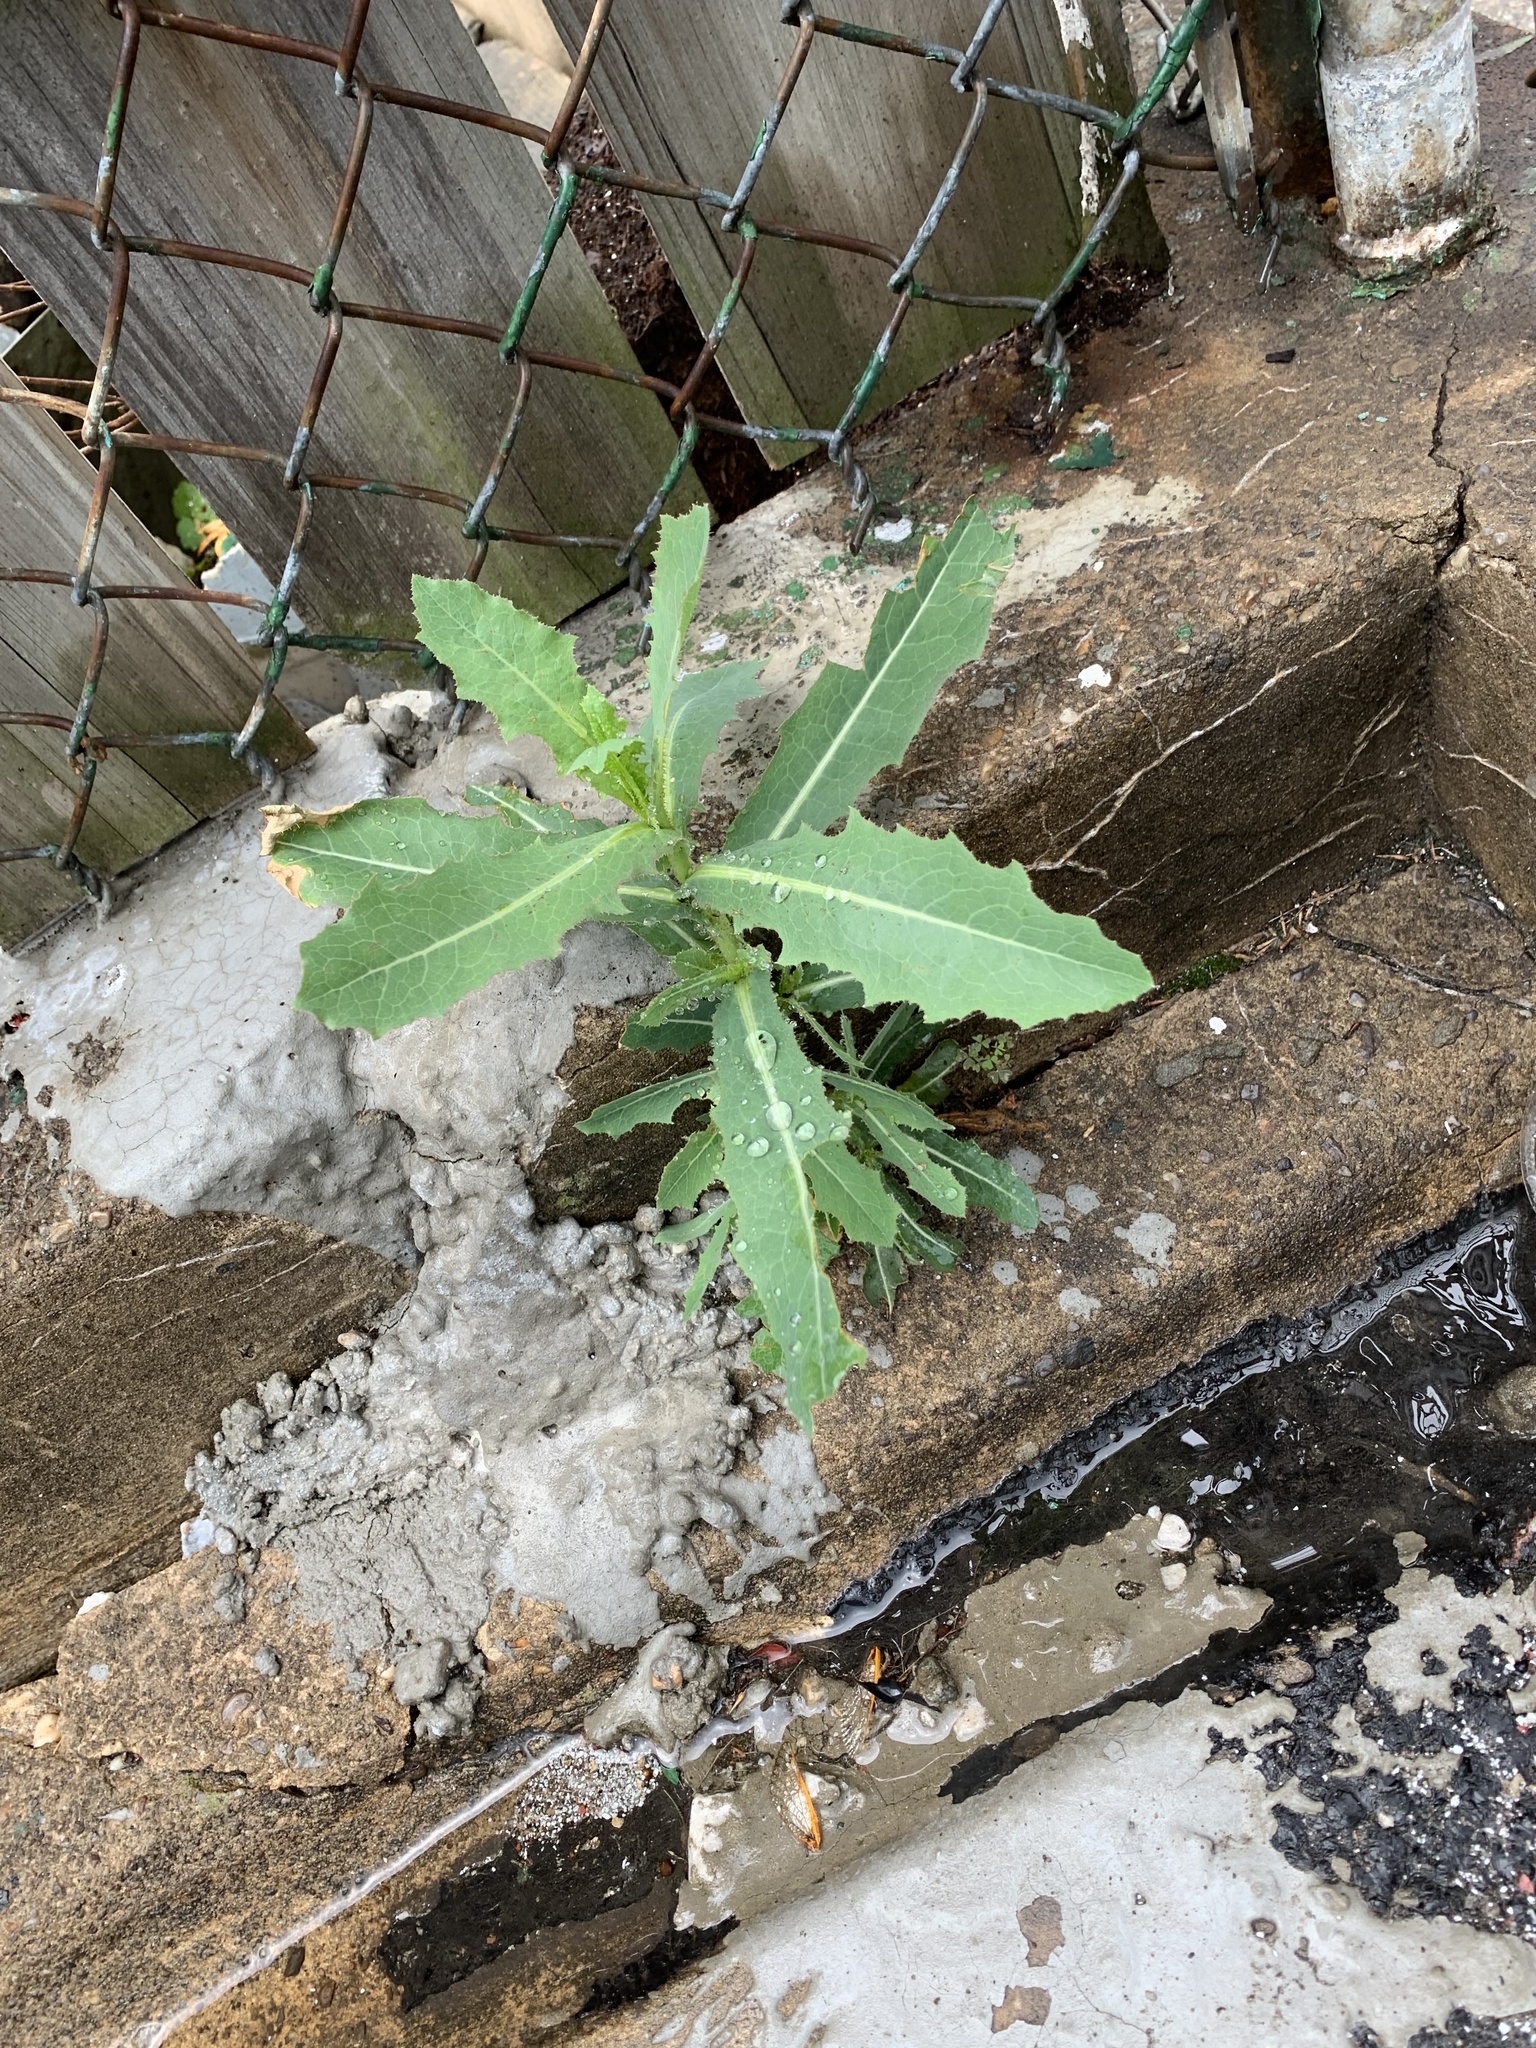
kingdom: Plantae
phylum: Tracheophyta
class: Magnoliopsida
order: Asterales
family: Asteraceae
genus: Lactuca
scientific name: Lactuca serriola
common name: Prickly lettuce
